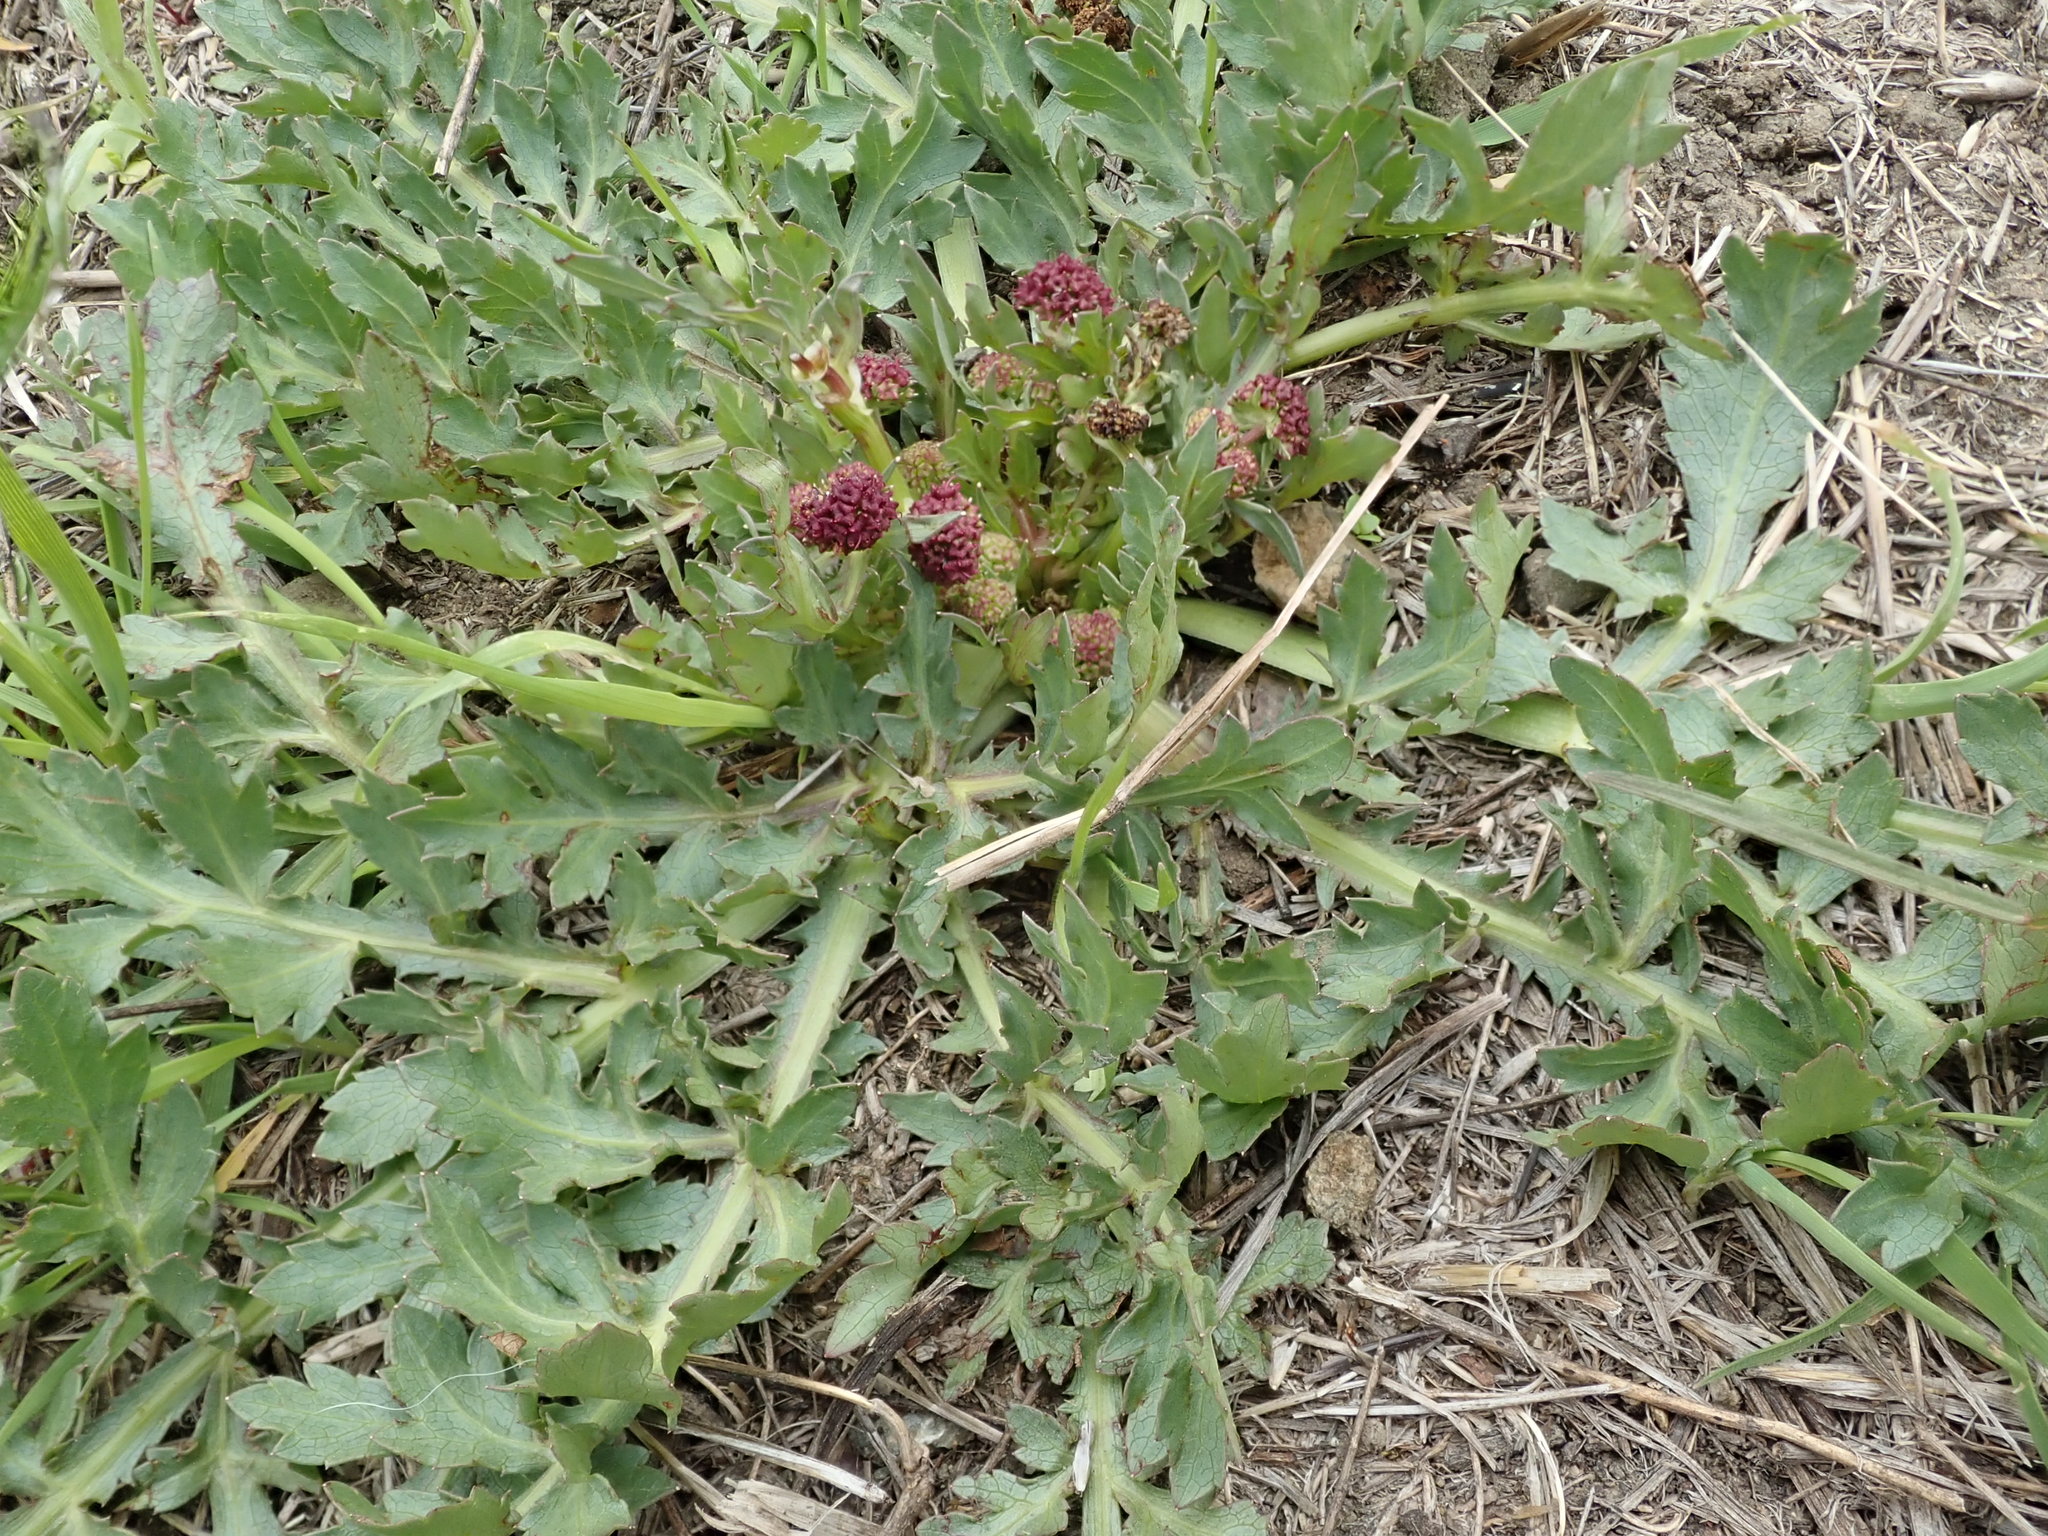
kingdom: Plantae
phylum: Tracheophyta
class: Magnoliopsida
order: Apiales
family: Apiaceae
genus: Sanicula
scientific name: Sanicula bipinnatifida
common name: Shoe-buttons
